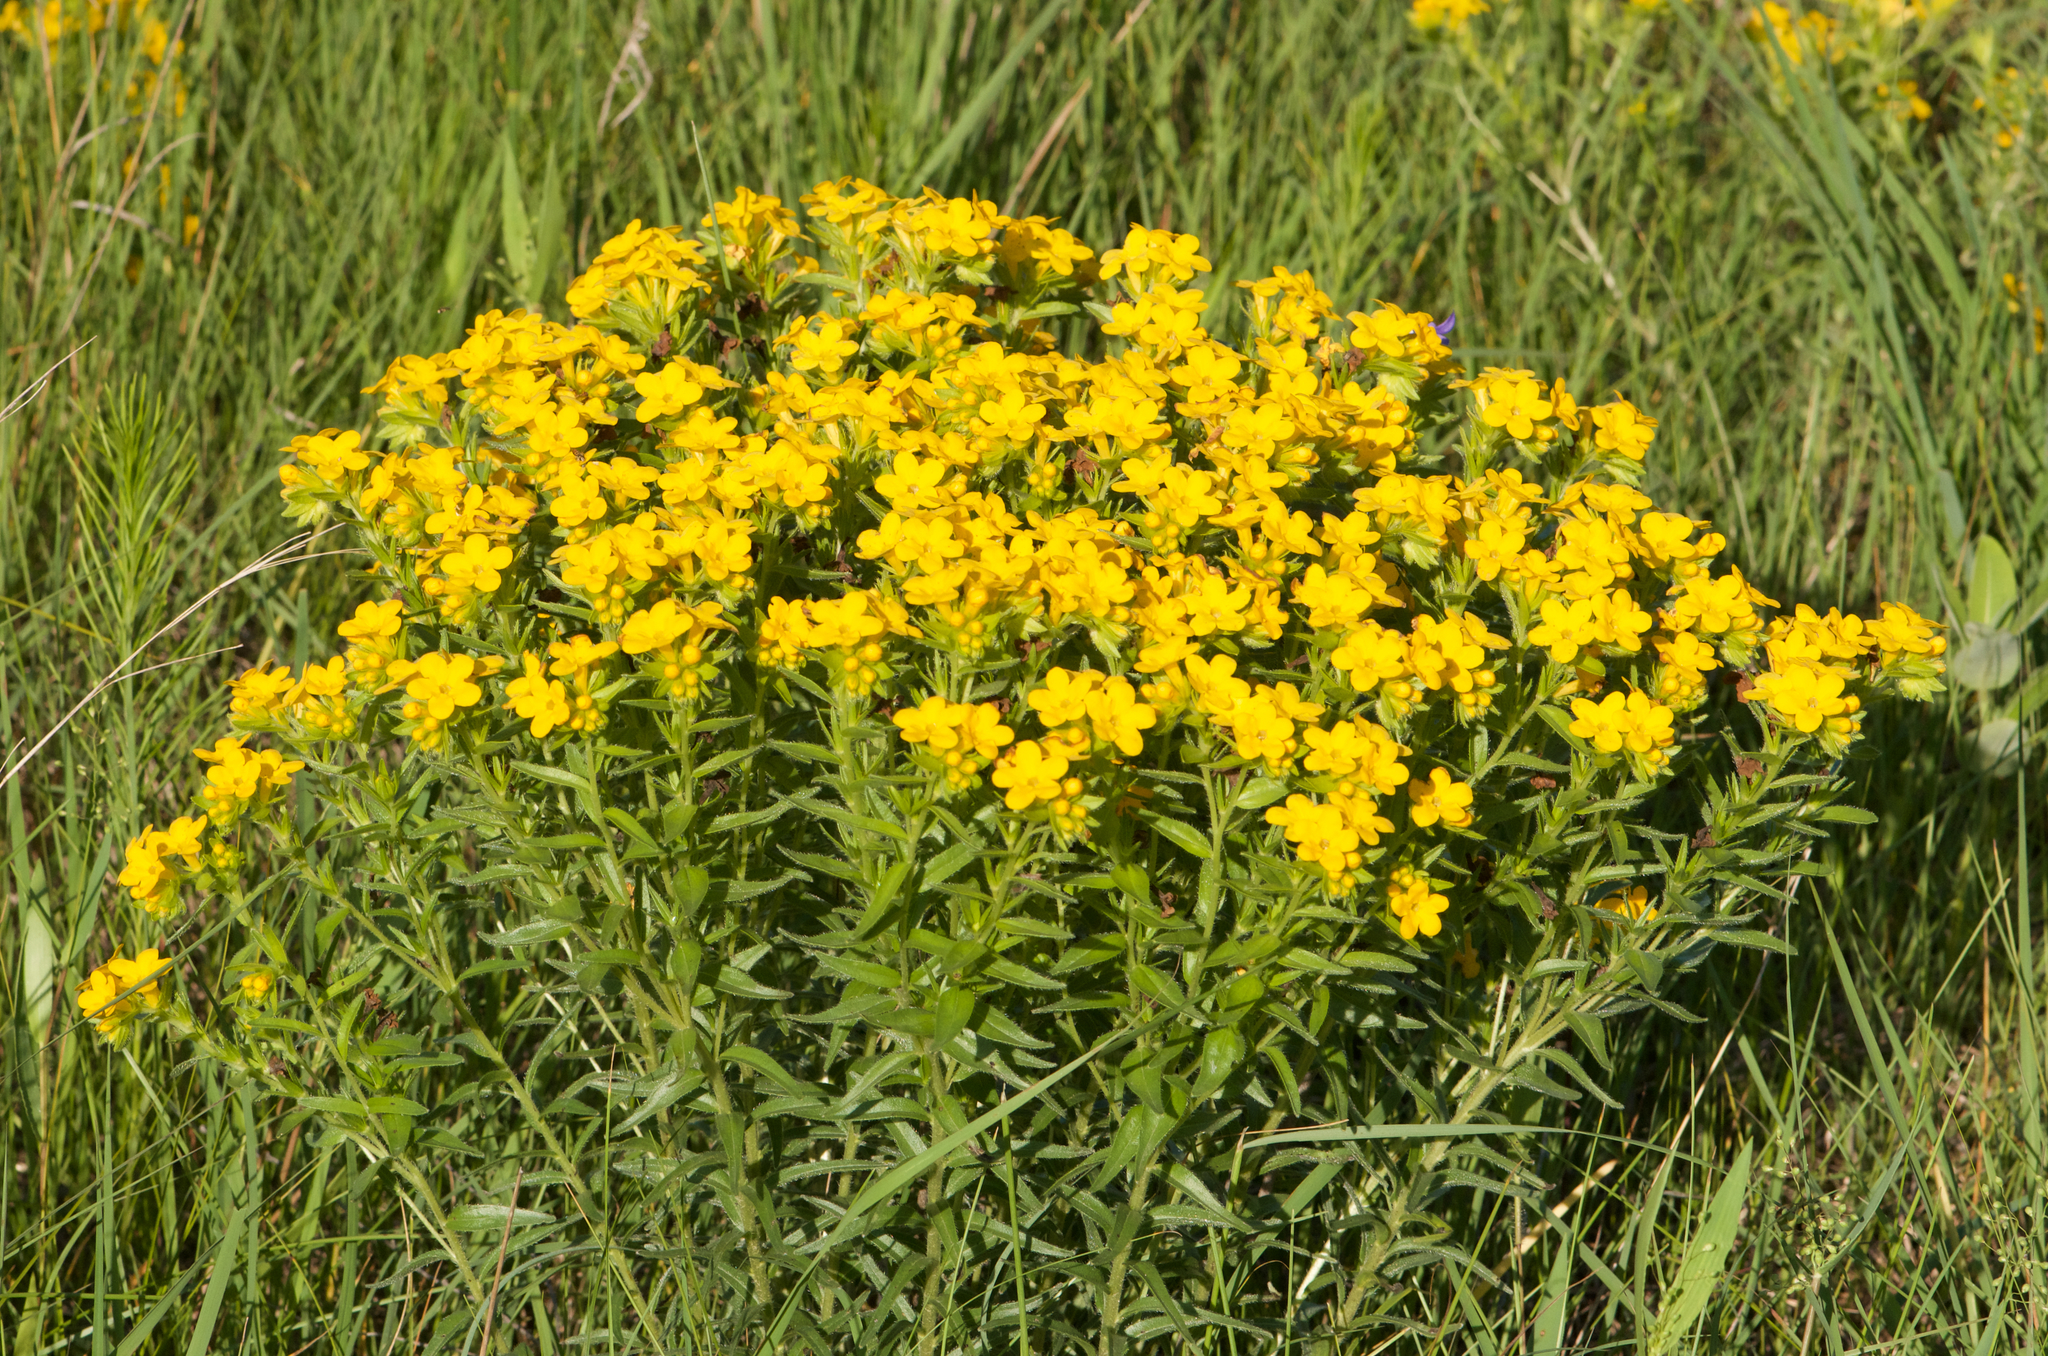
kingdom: Plantae
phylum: Tracheophyta
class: Magnoliopsida
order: Boraginales
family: Boraginaceae
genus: Lithospermum
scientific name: Lithospermum caroliniense
